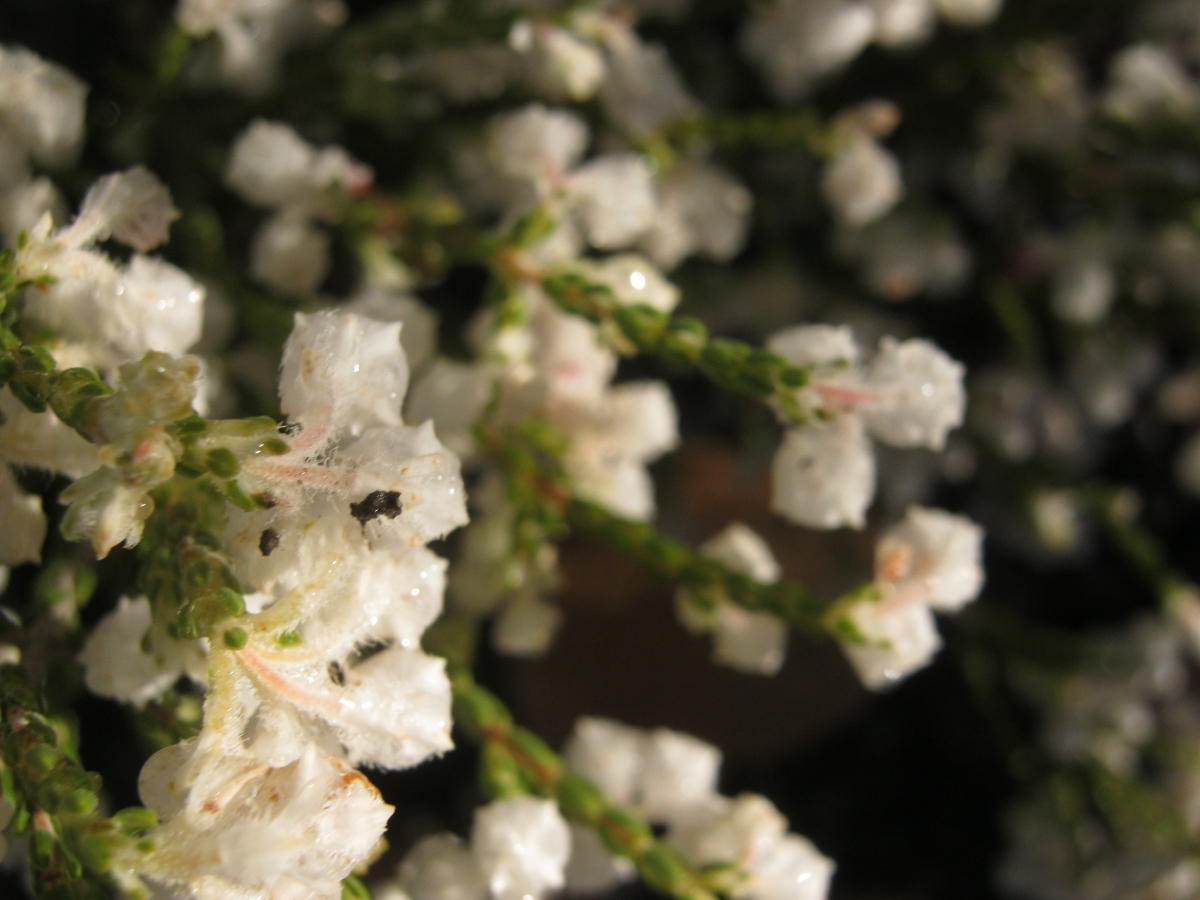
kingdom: Plantae
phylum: Tracheophyta
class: Magnoliopsida
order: Ericales
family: Ericaceae
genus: Erica
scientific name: Erica fimbriata
